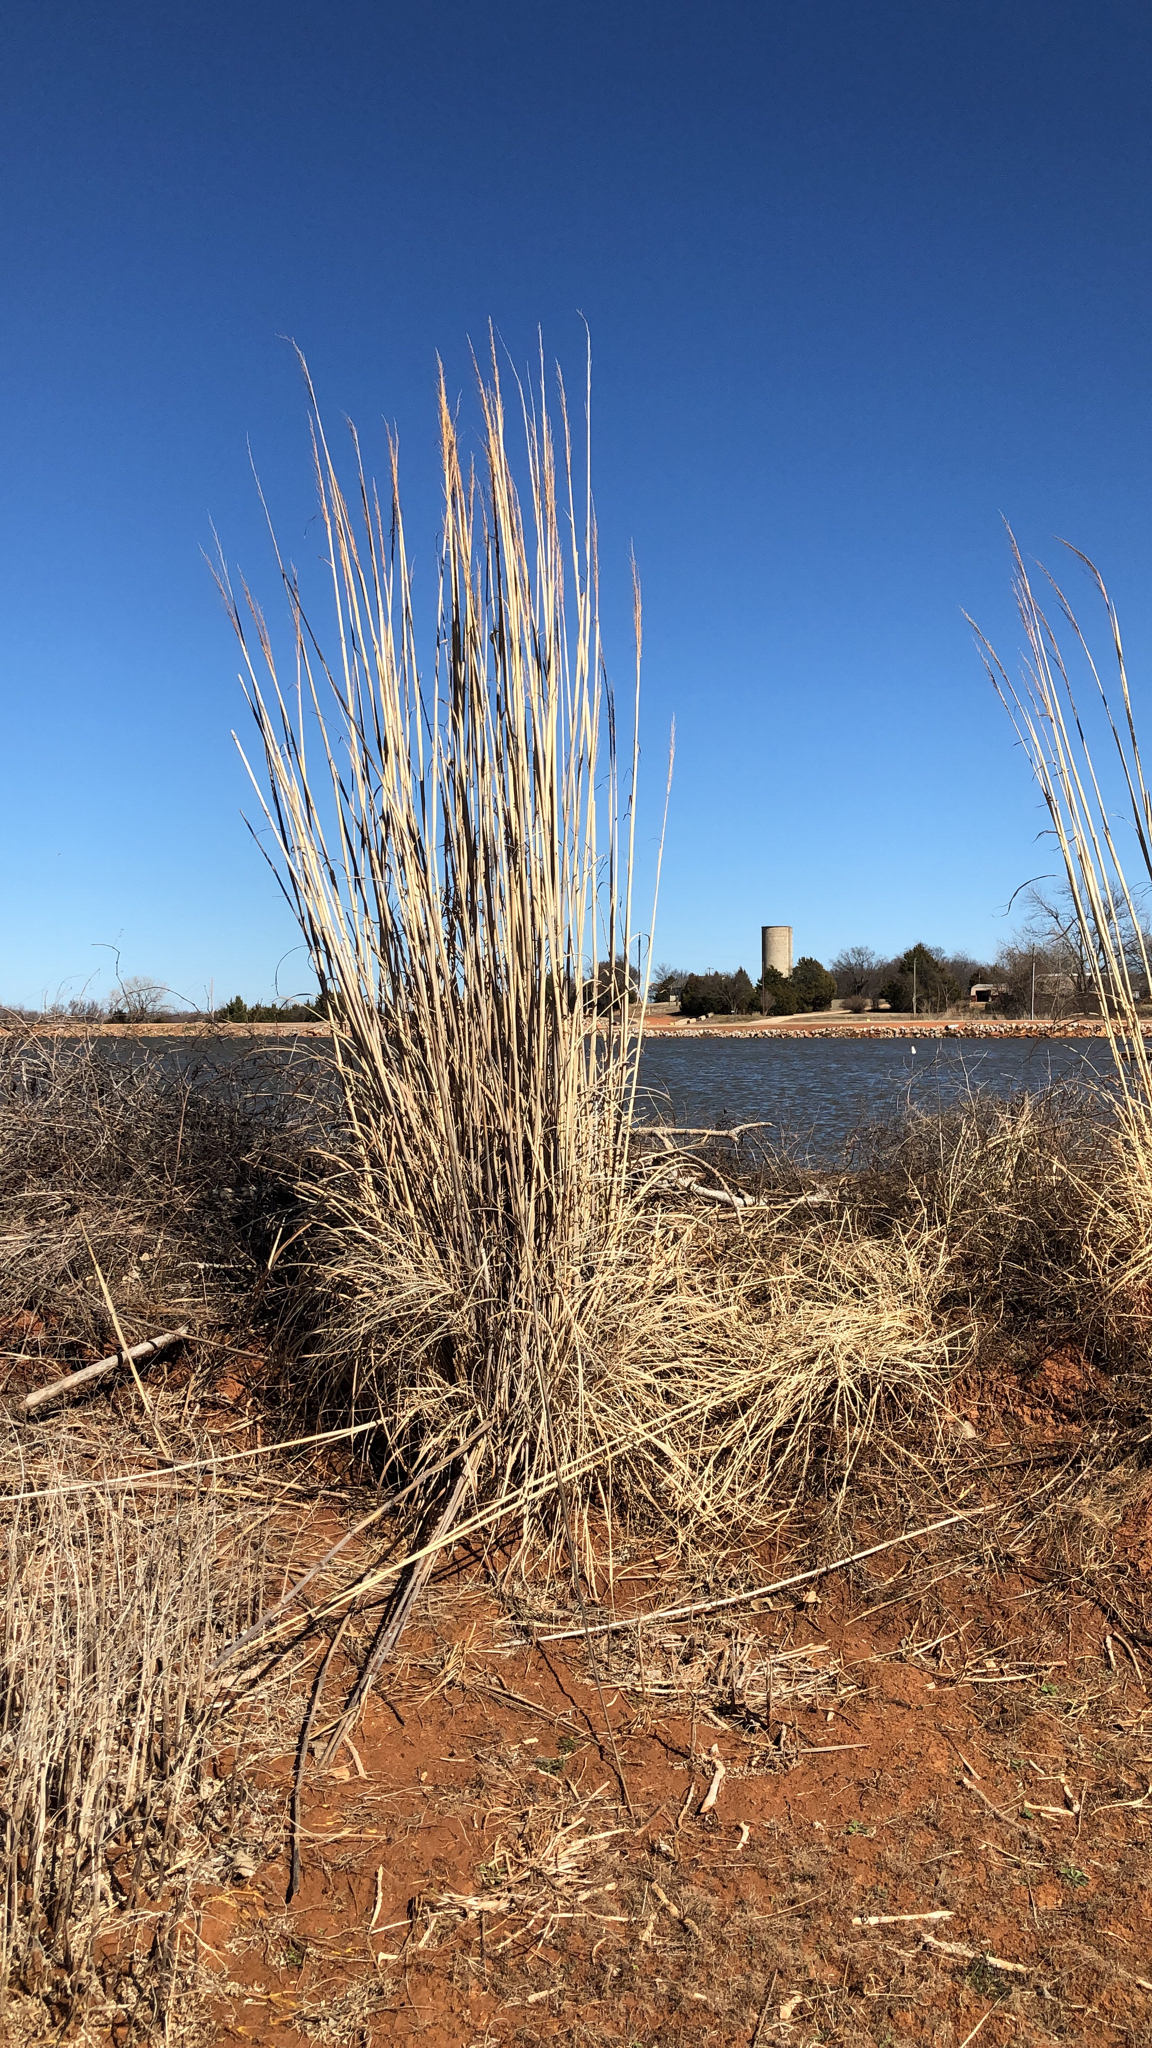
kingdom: Plantae
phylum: Tracheophyta
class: Liliopsida
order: Poales
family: Poaceae
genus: Tripidium
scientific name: Tripidium ravennae
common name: Ravenna grass
